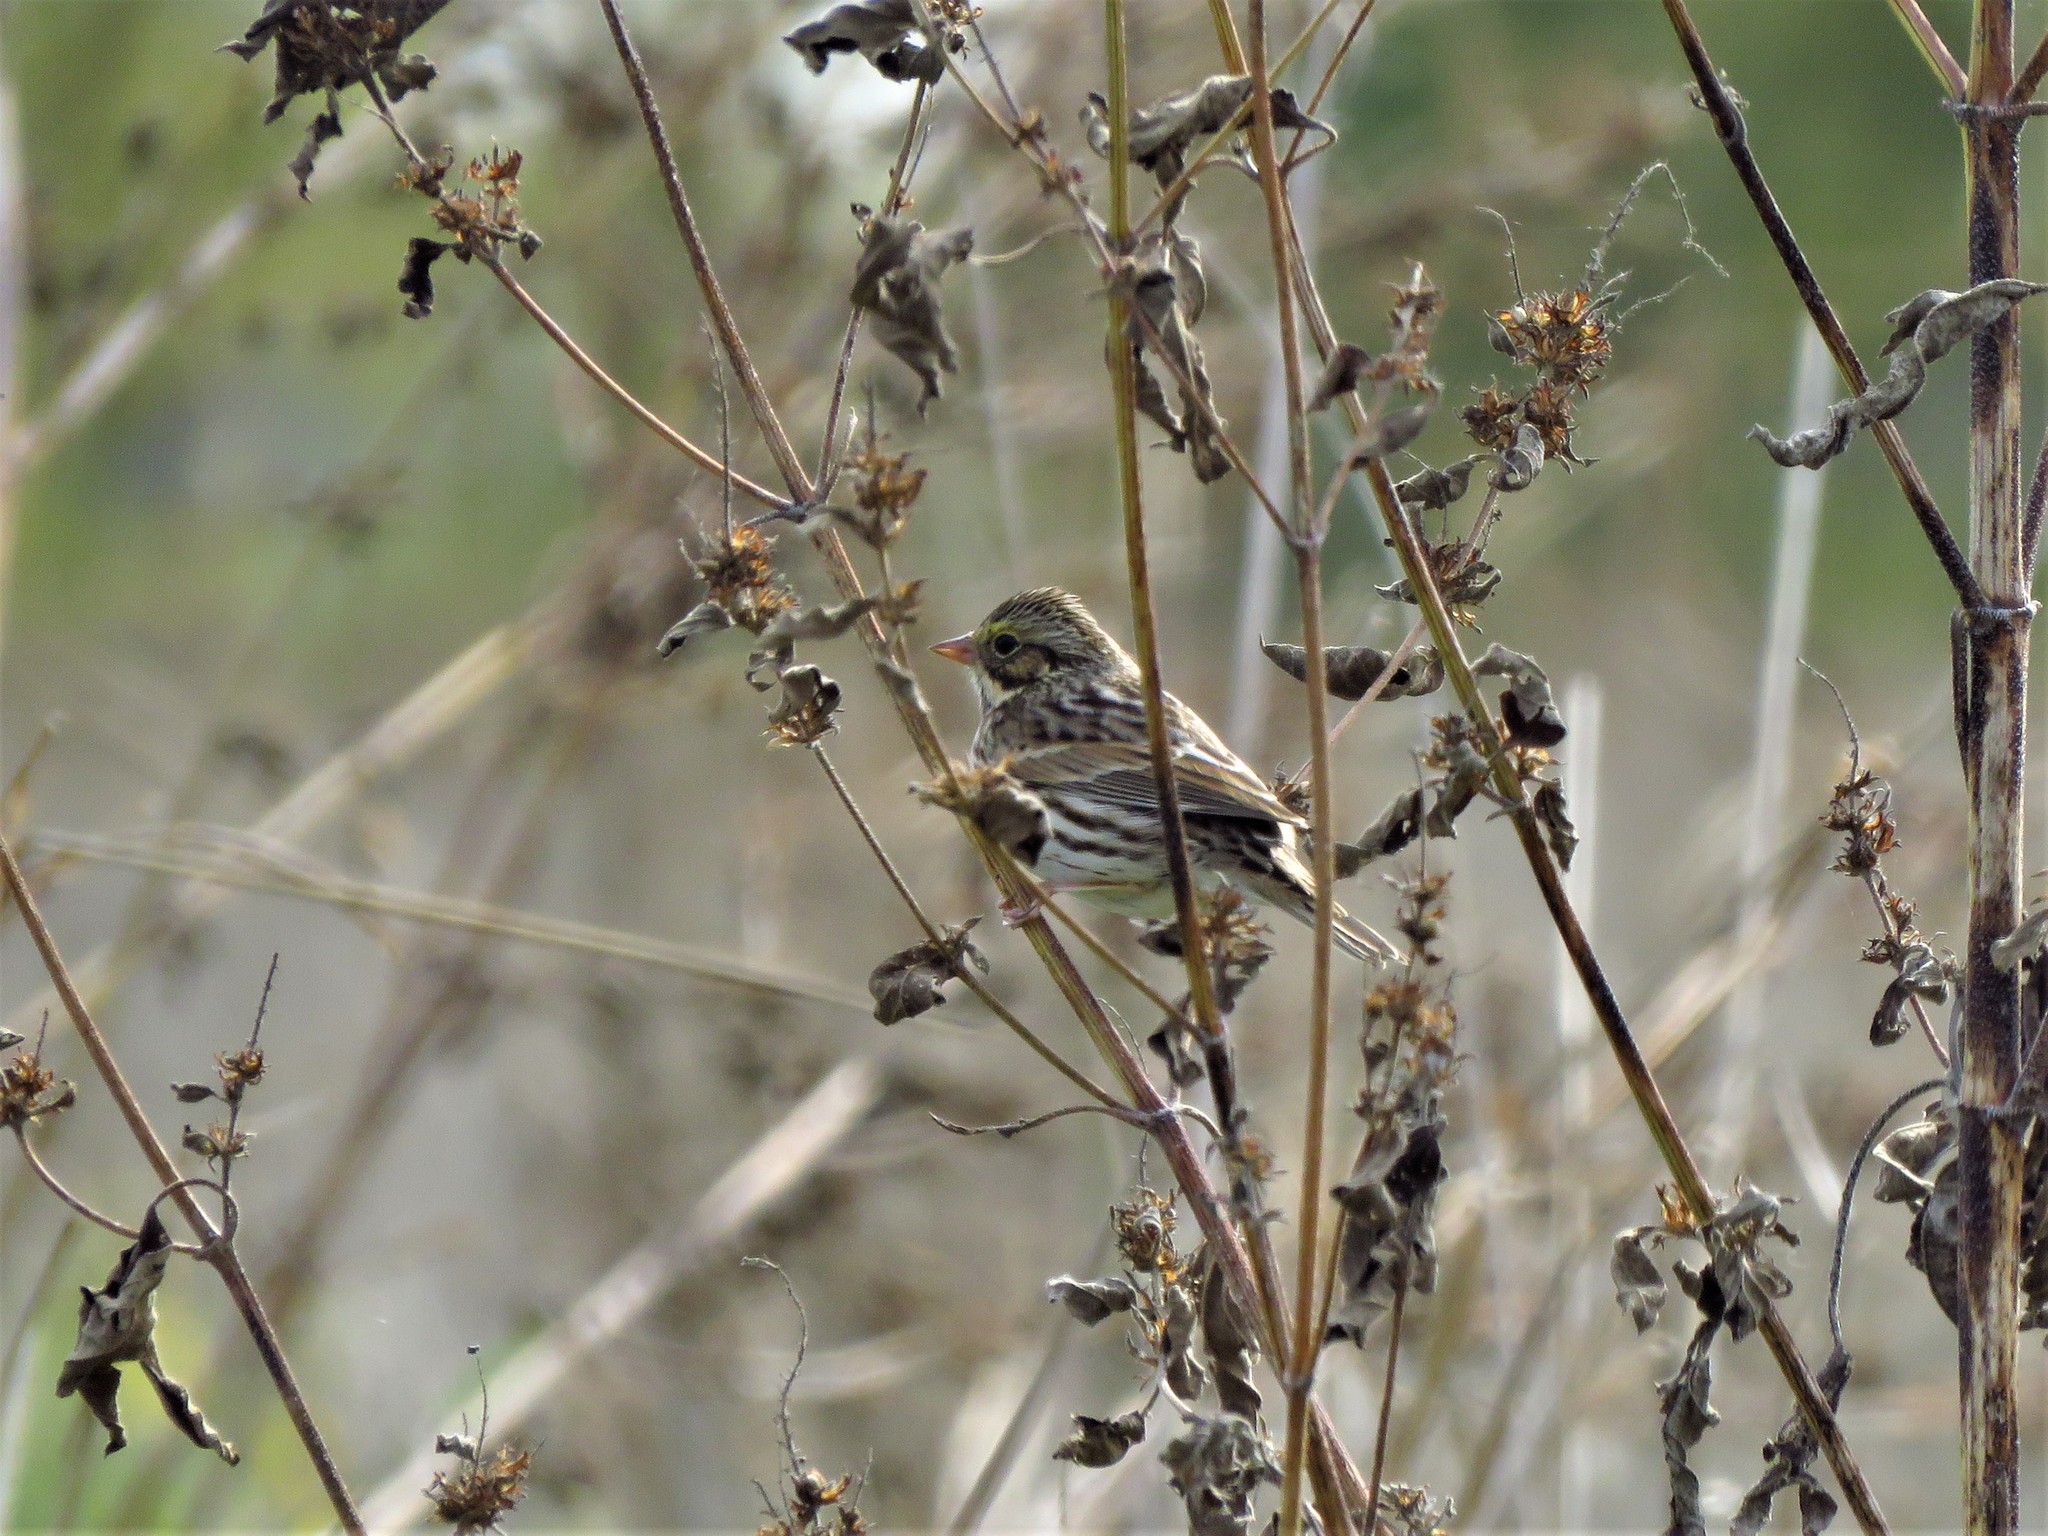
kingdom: Animalia
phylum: Chordata
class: Aves
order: Passeriformes
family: Passerellidae
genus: Passerculus
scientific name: Passerculus sandwichensis
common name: Savannah sparrow
